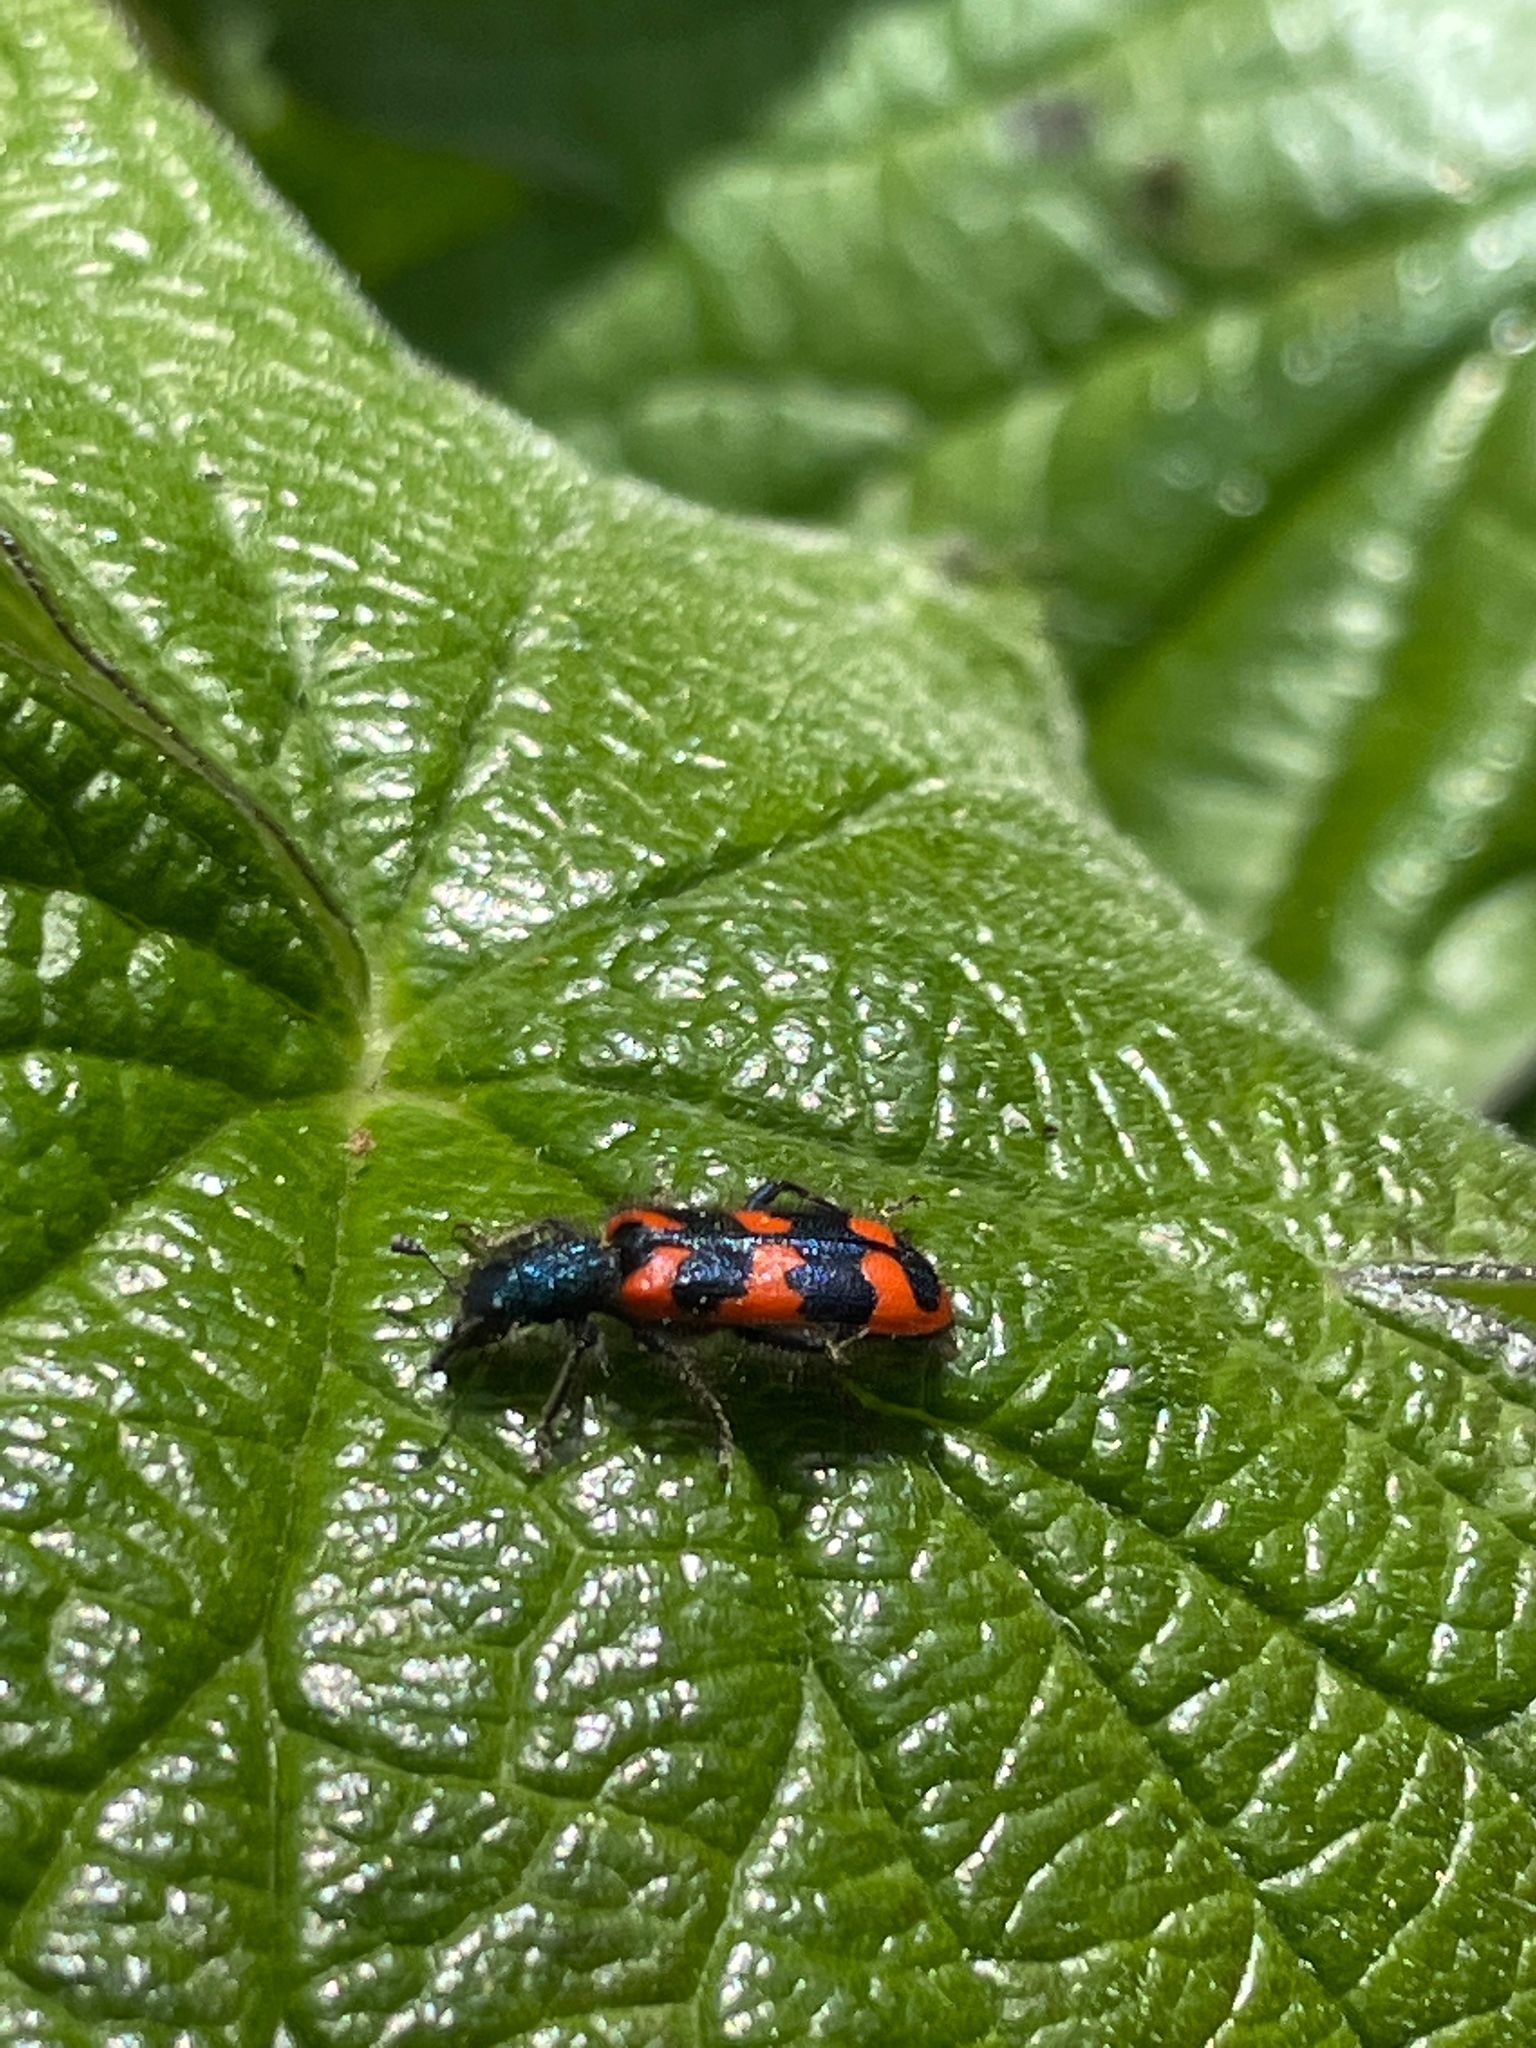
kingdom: Animalia
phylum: Arthropoda
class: Insecta
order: Coleoptera
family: Cleridae
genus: Trichodes
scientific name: Trichodes alvearius
